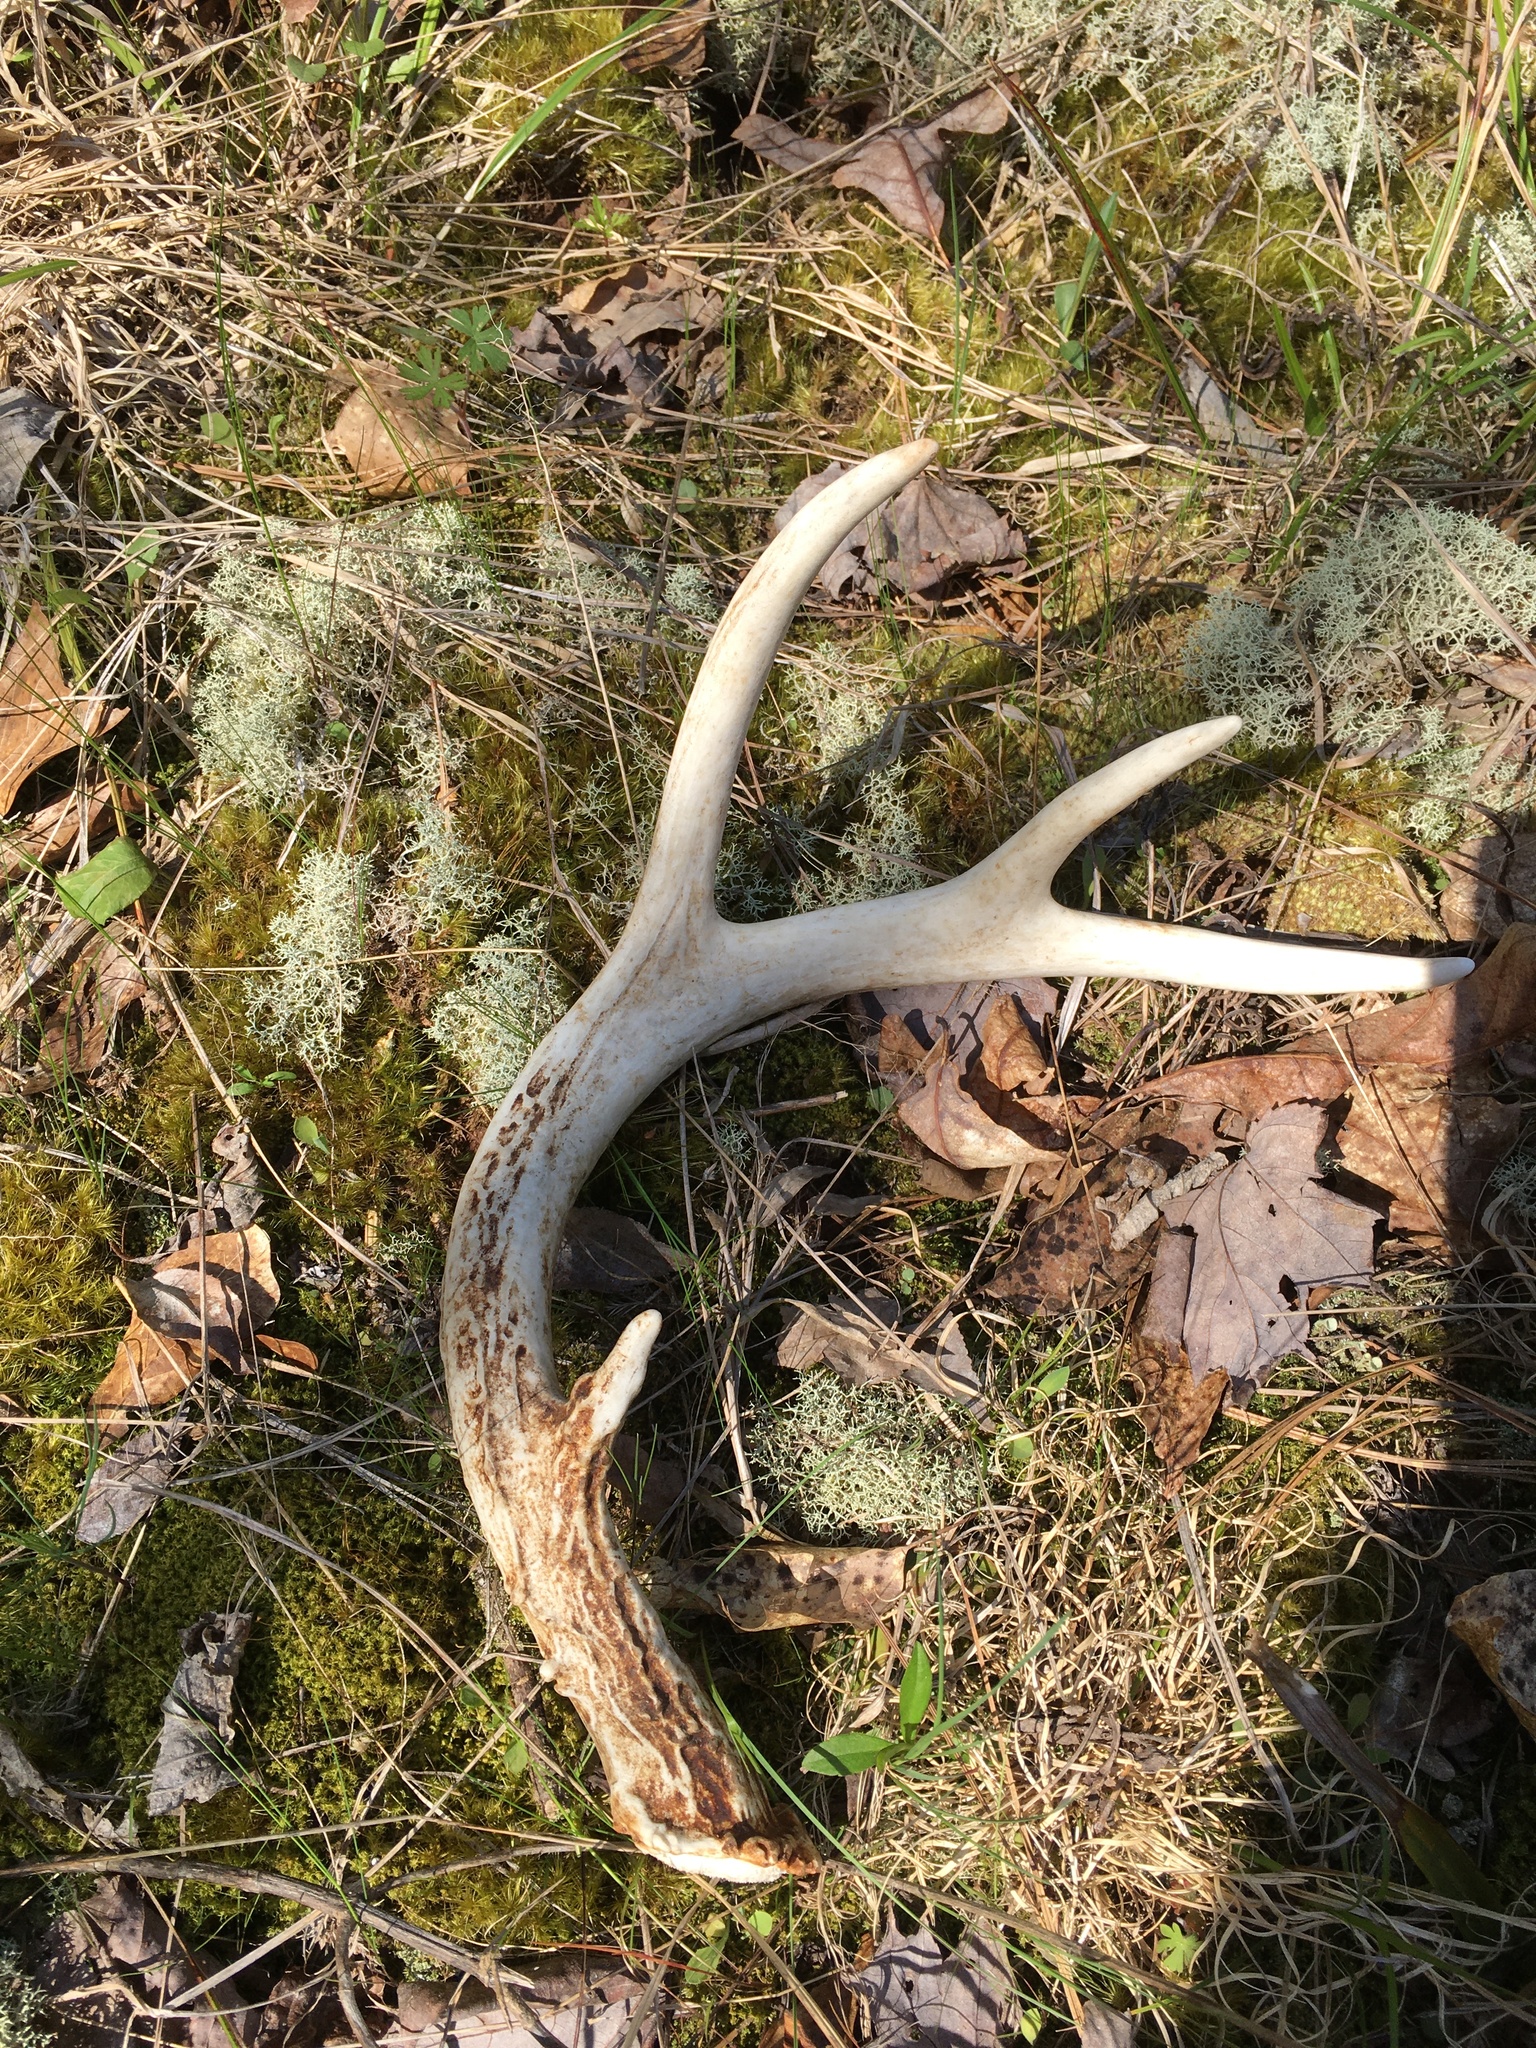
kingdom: Animalia
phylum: Chordata
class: Mammalia
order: Artiodactyla
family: Cervidae
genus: Odocoileus
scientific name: Odocoileus virginianus
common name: White-tailed deer
